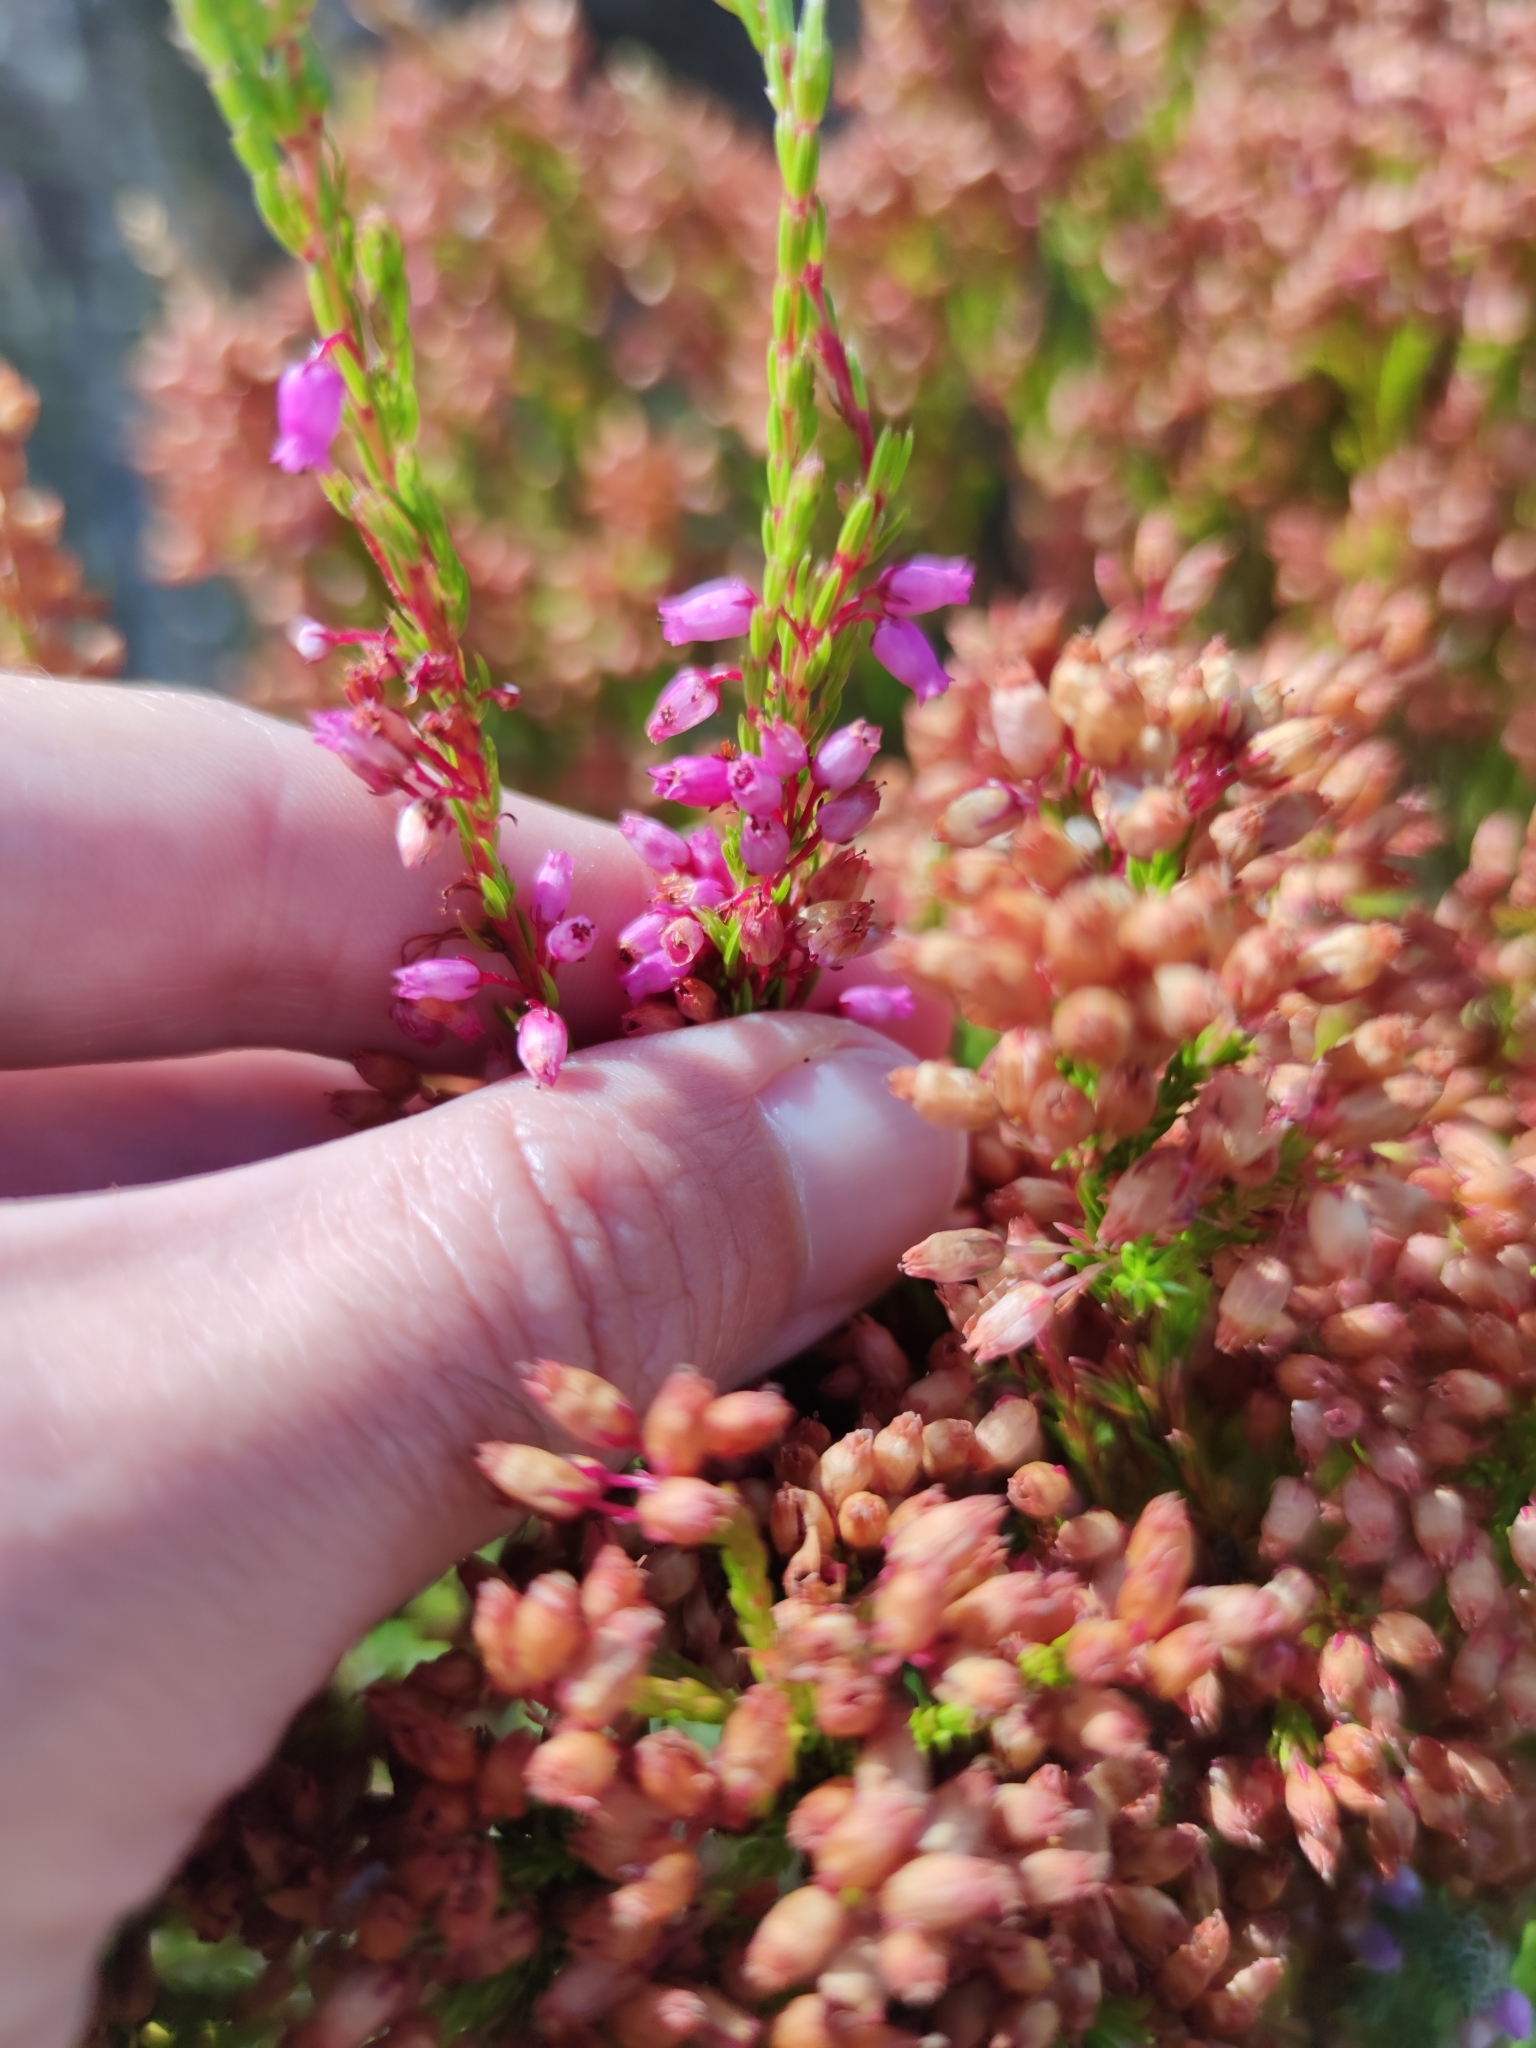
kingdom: Plantae
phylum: Tracheophyta
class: Magnoliopsida
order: Ericales
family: Ericaceae
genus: Erica
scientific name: Erica laeta
